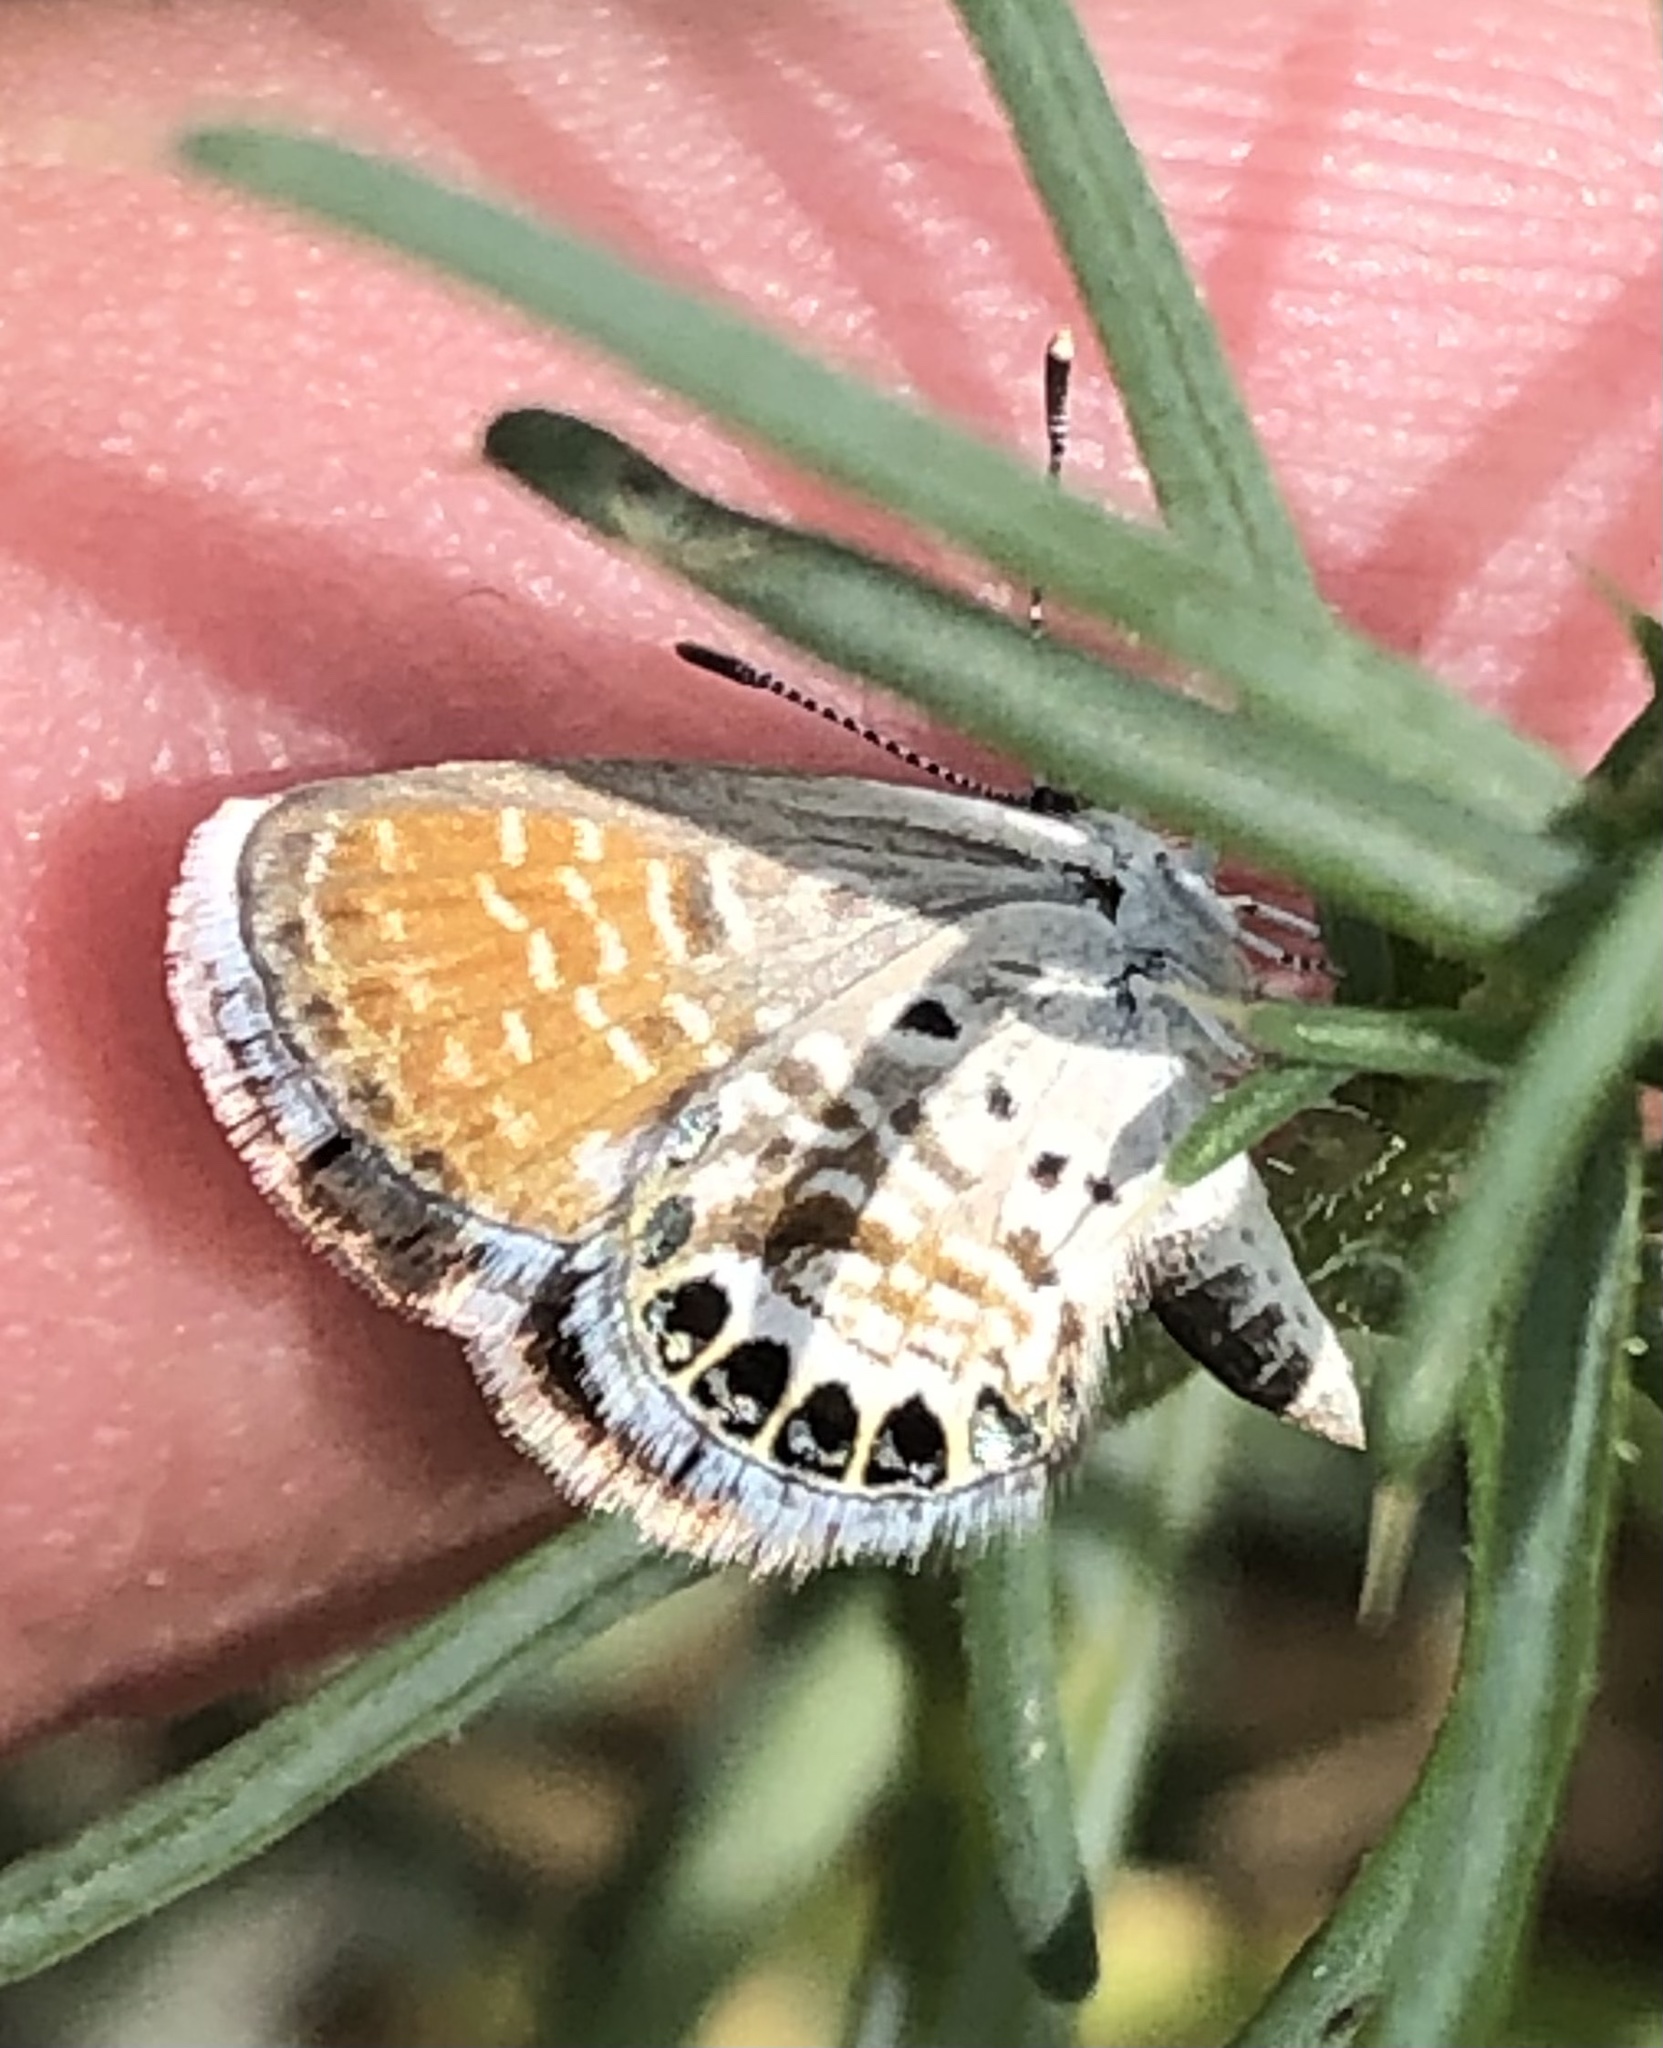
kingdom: Animalia
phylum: Arthropoda
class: Insecta
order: Lepidoptera
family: Lycaenidae
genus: Brephidium
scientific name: Brephidium exilis
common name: Pygmy blue
